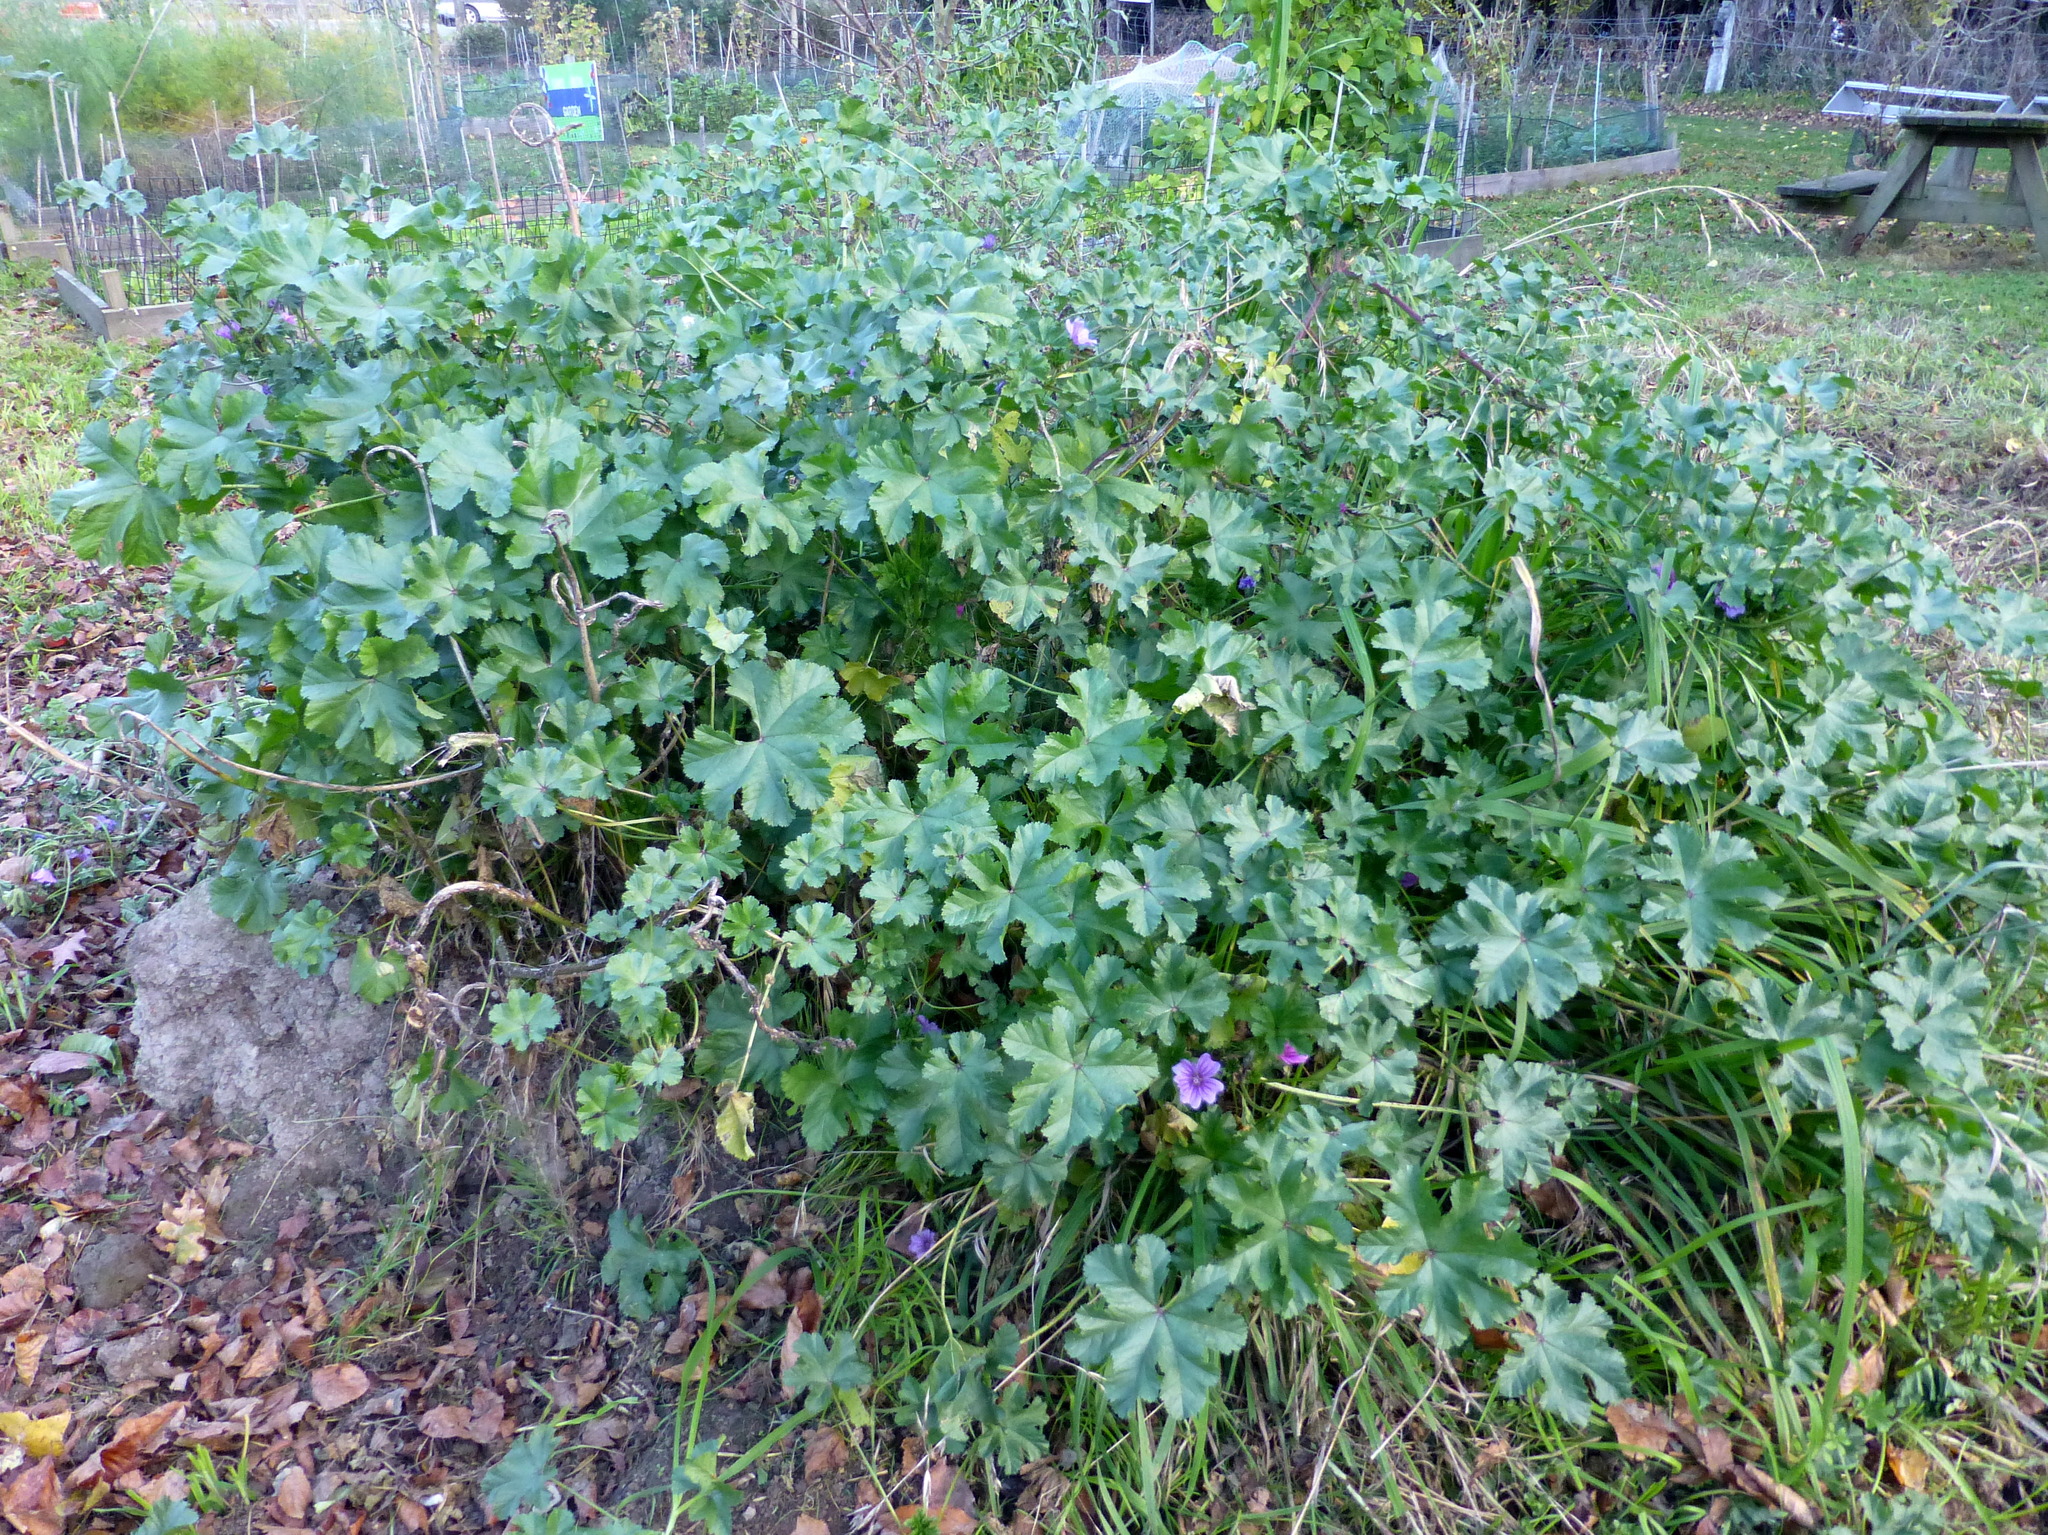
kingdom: Plantae
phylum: Tracheophyta
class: Magnoliopsida
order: Malvales
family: Malvaceae
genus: Malva
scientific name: Malva sylvestris
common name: Common mallow
